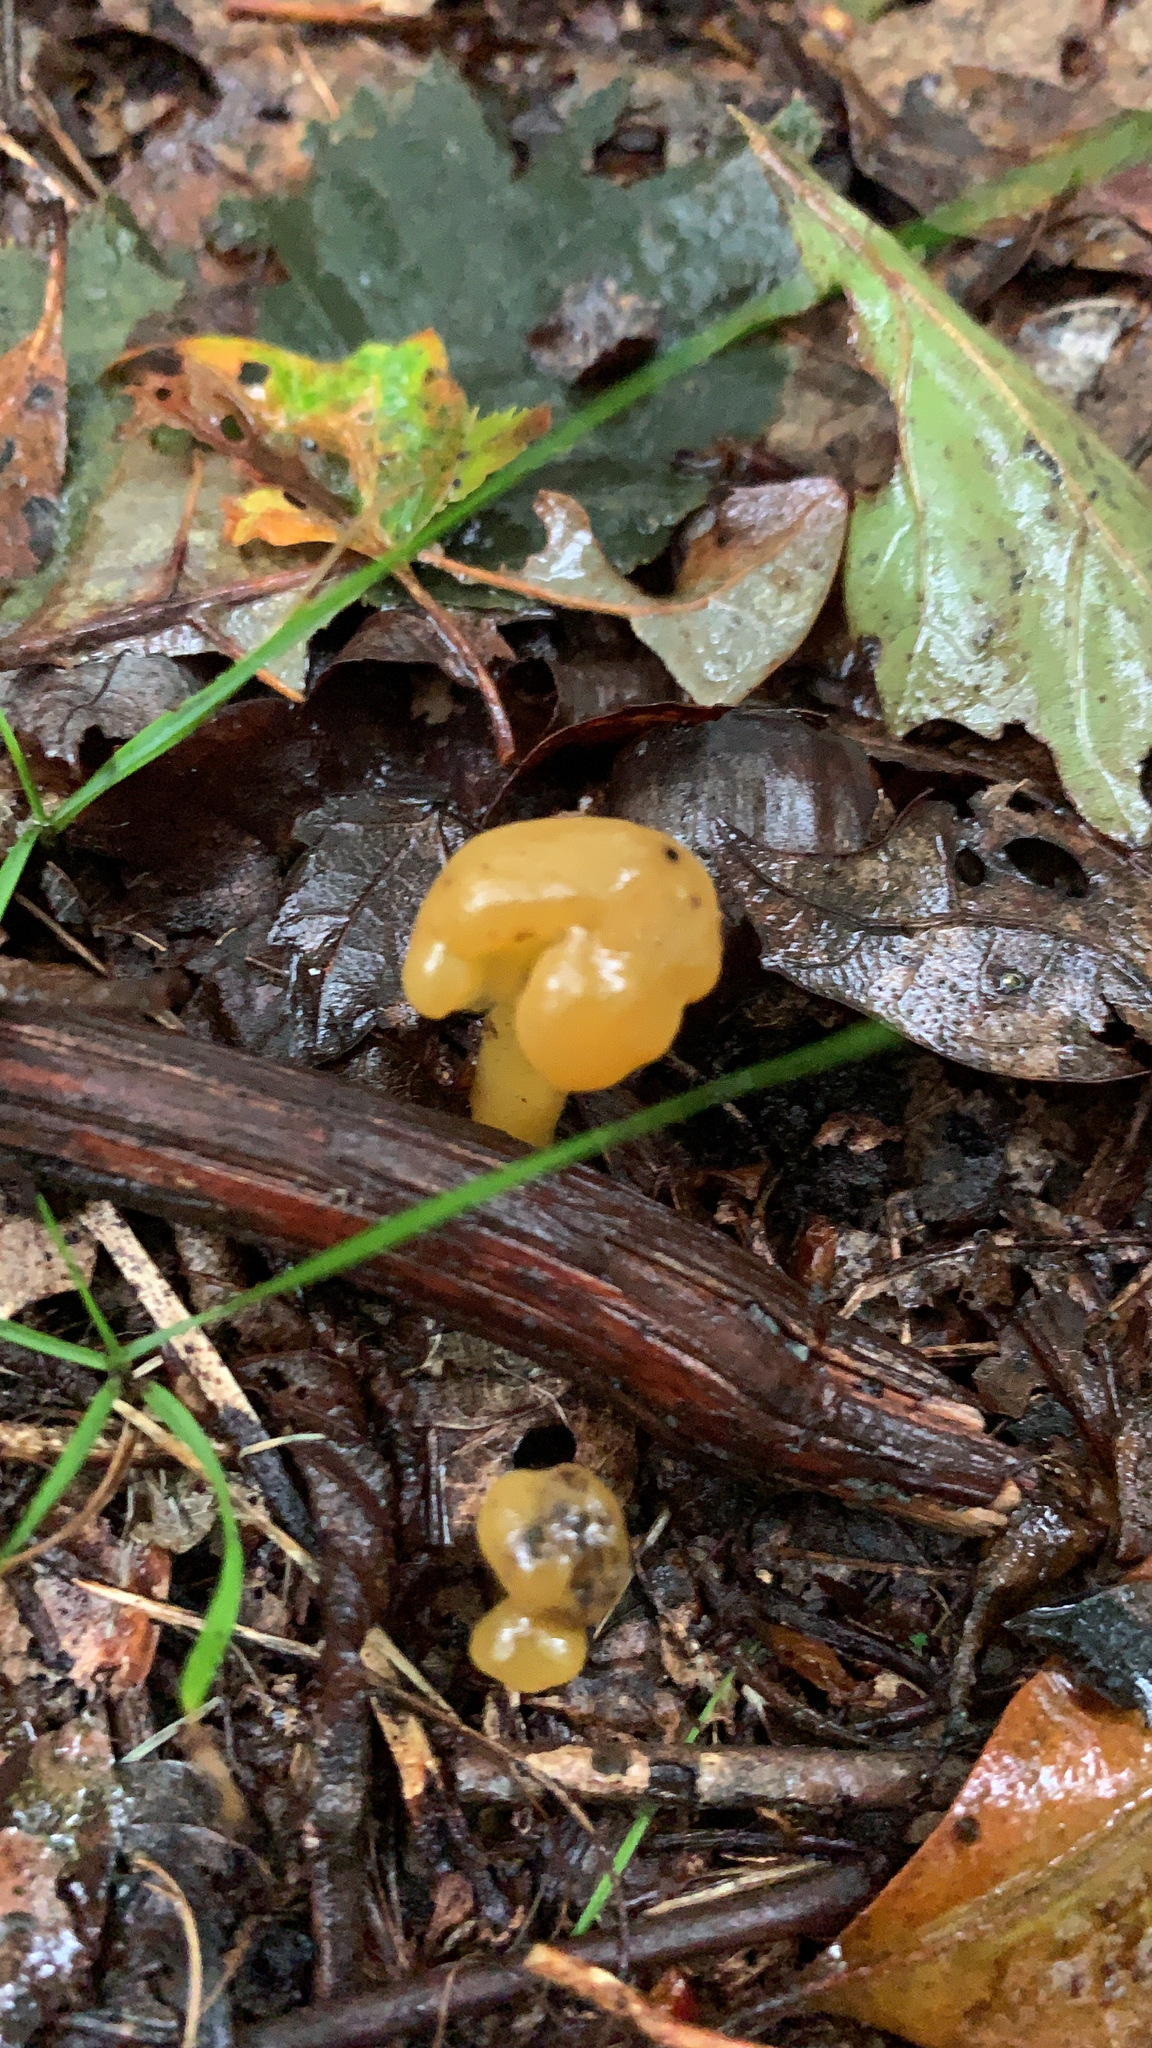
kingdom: Fungi
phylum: Ascomycota
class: Leotiomycetes
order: Leotiales
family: Leotiaceae
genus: Leotia
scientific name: Leotia lubrica
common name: Jellybaby
